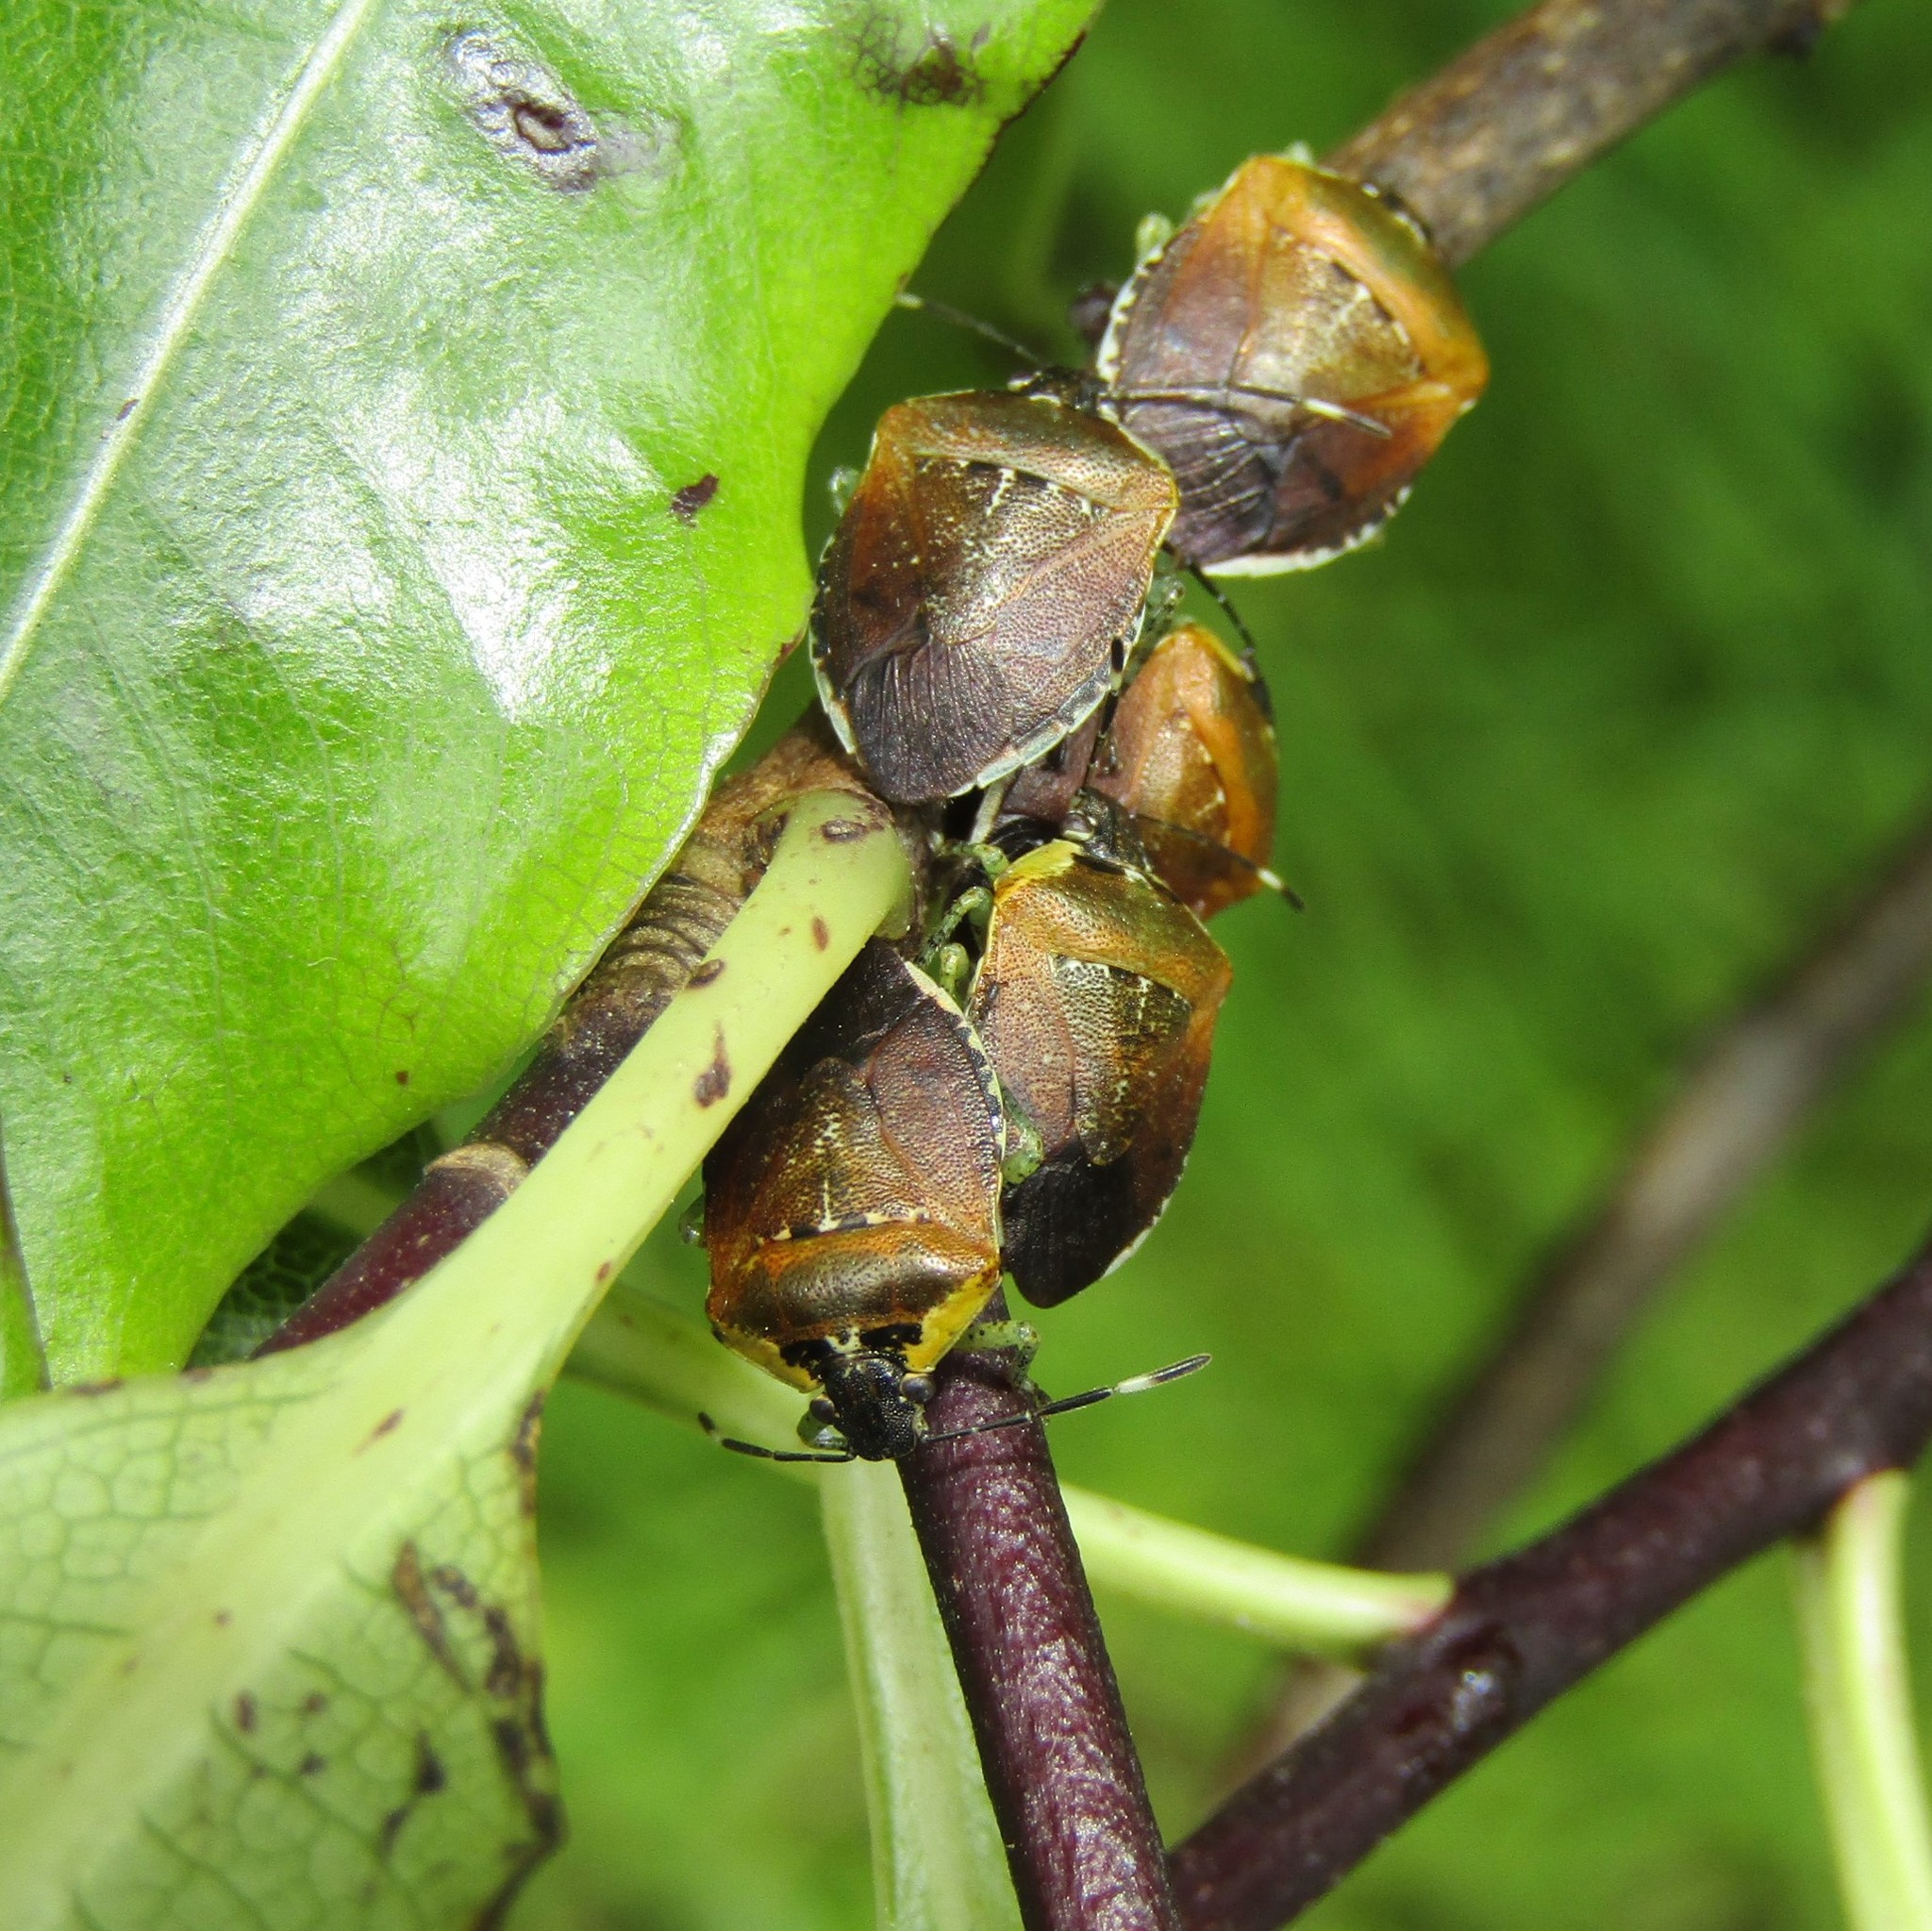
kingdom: Animalia
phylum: Arthropoda
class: Insecta
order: Hemiptera
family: Pentatomidae
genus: Monteithiella
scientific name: Monteithiella
